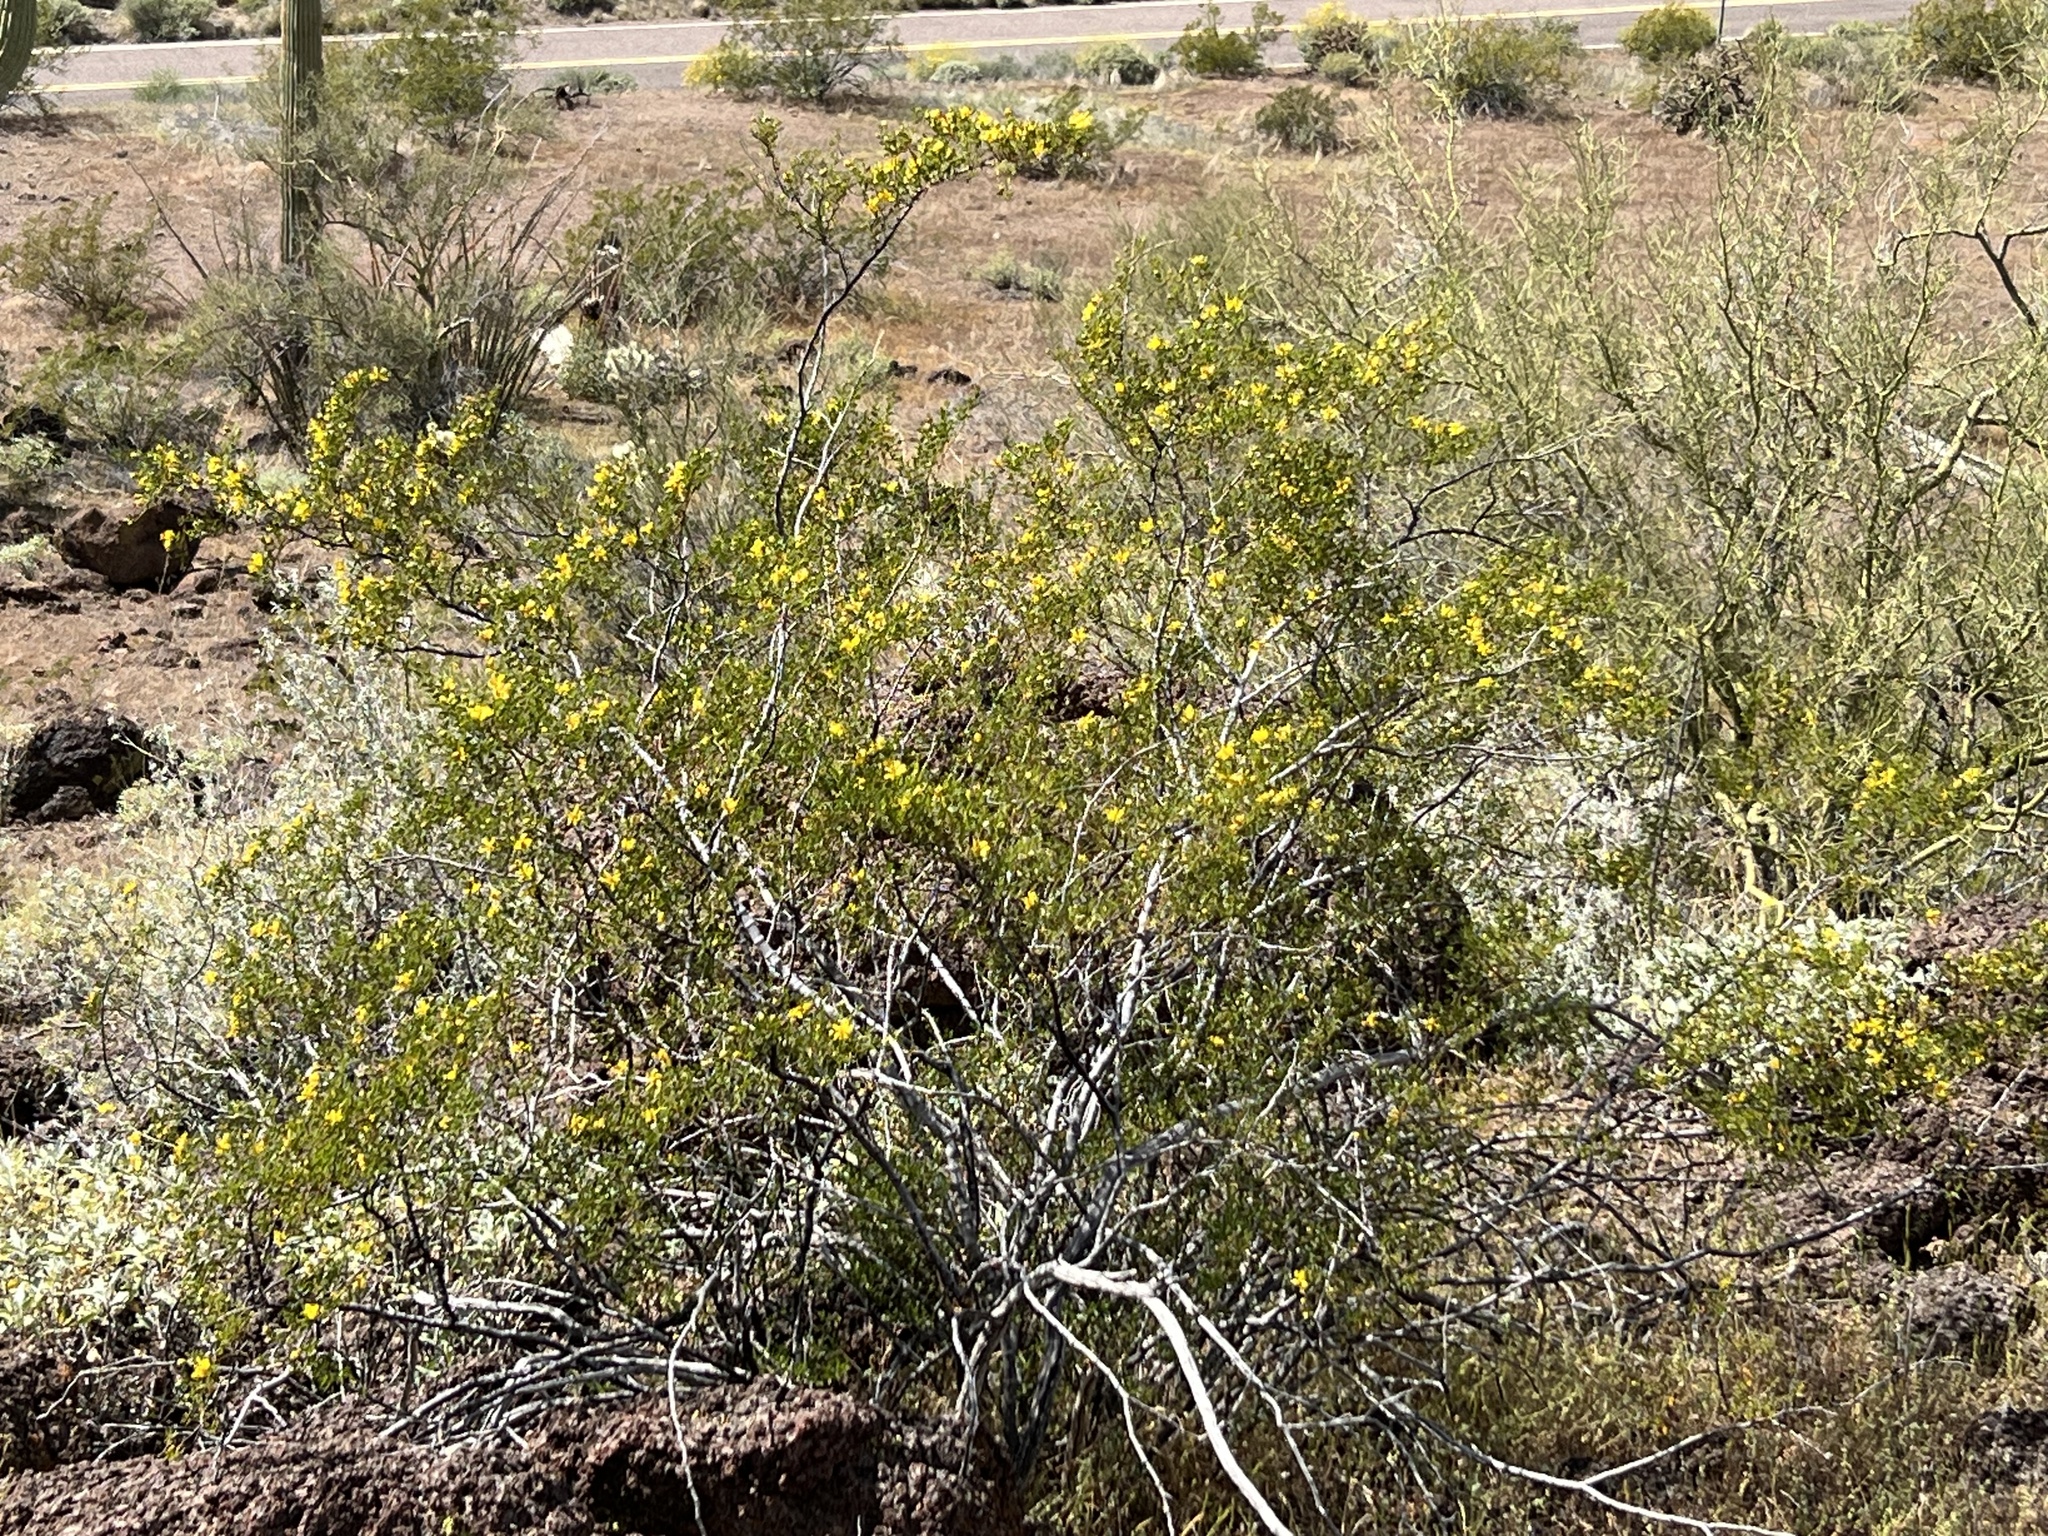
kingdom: Plantae
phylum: Tracheophyta
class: Magnoliopsida
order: Zygophyllales
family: Zygophyllaceae
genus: Larrea
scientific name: Larrea tridentata
